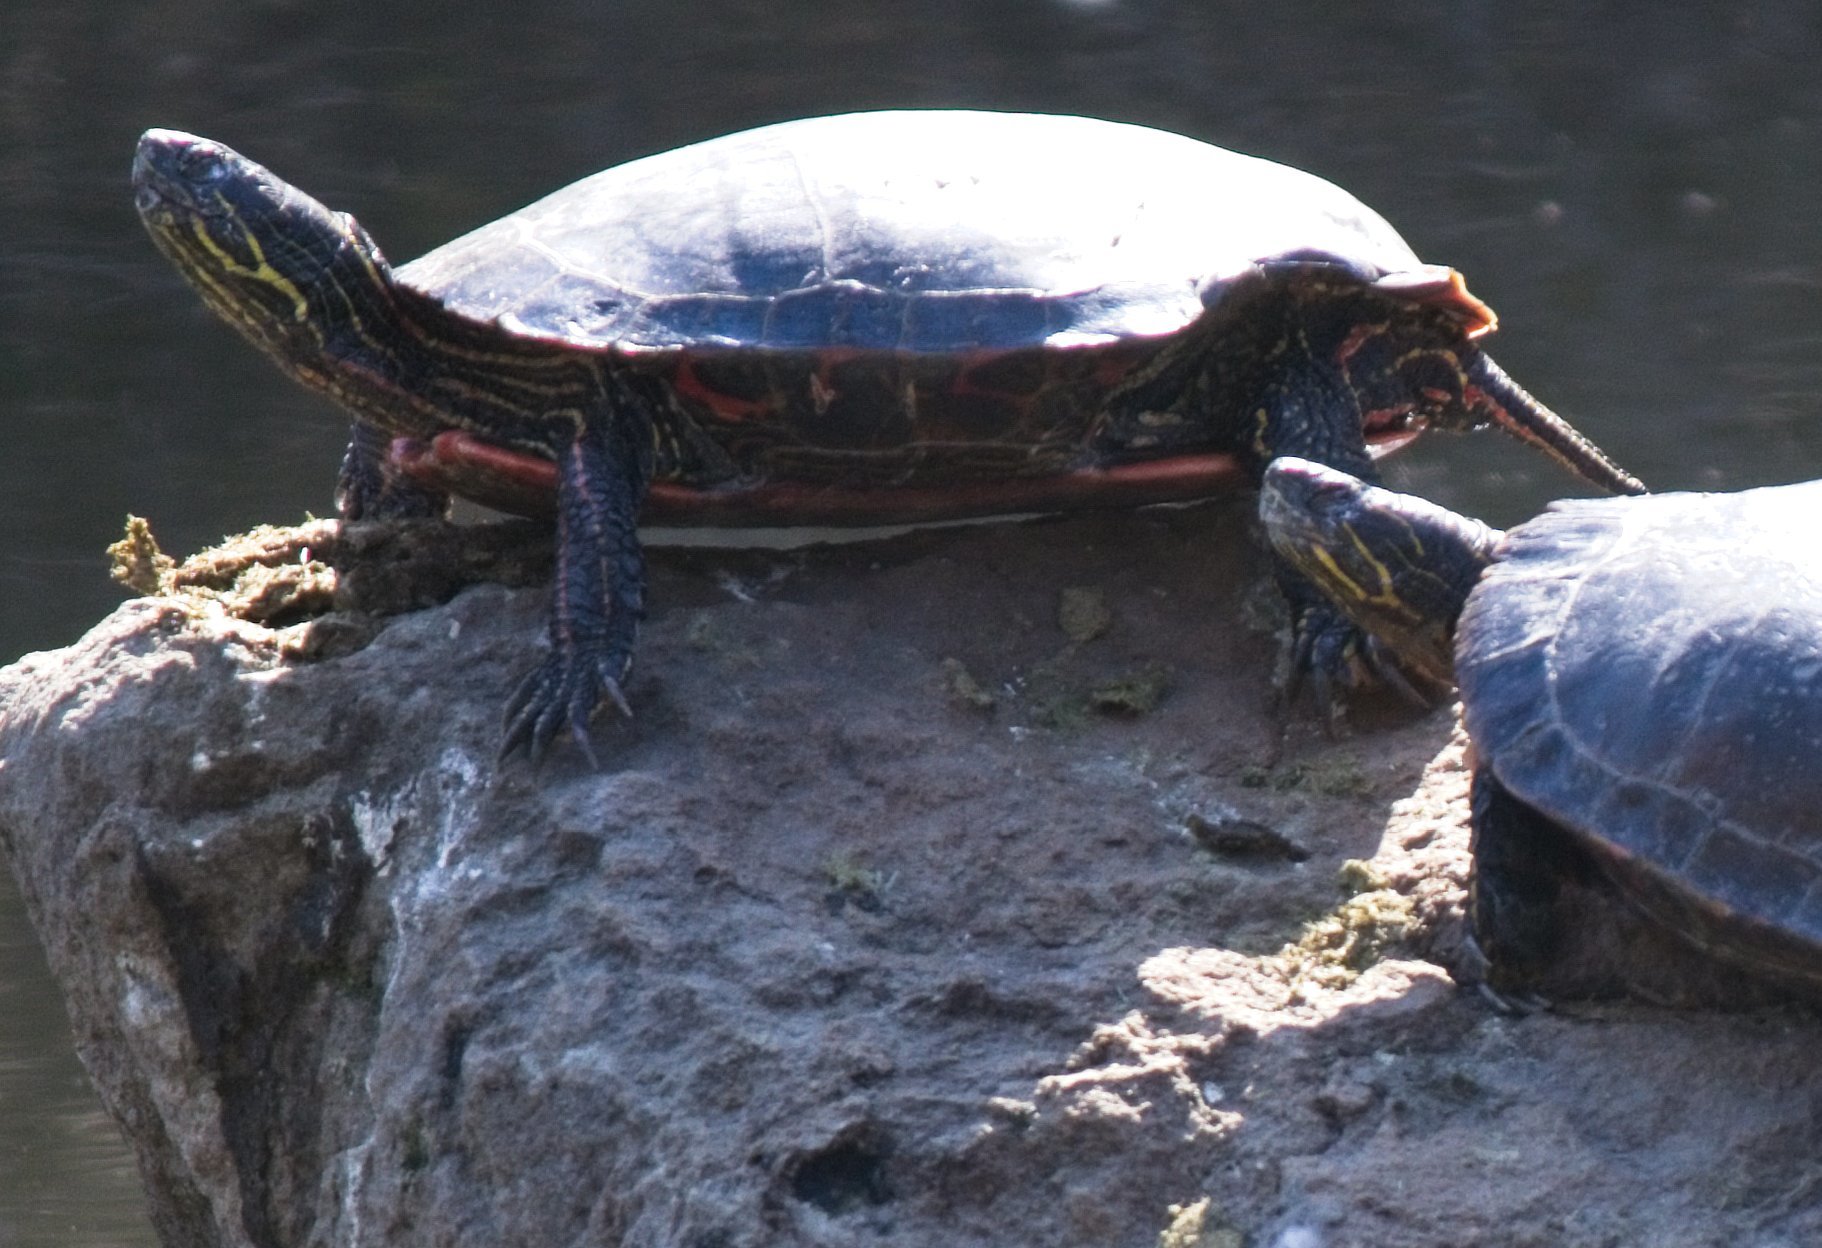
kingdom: Animalia
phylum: Chordata
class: Testudines
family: Emydidae
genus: Chrysemys
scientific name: Chrysemys picta
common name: Painted turtle
